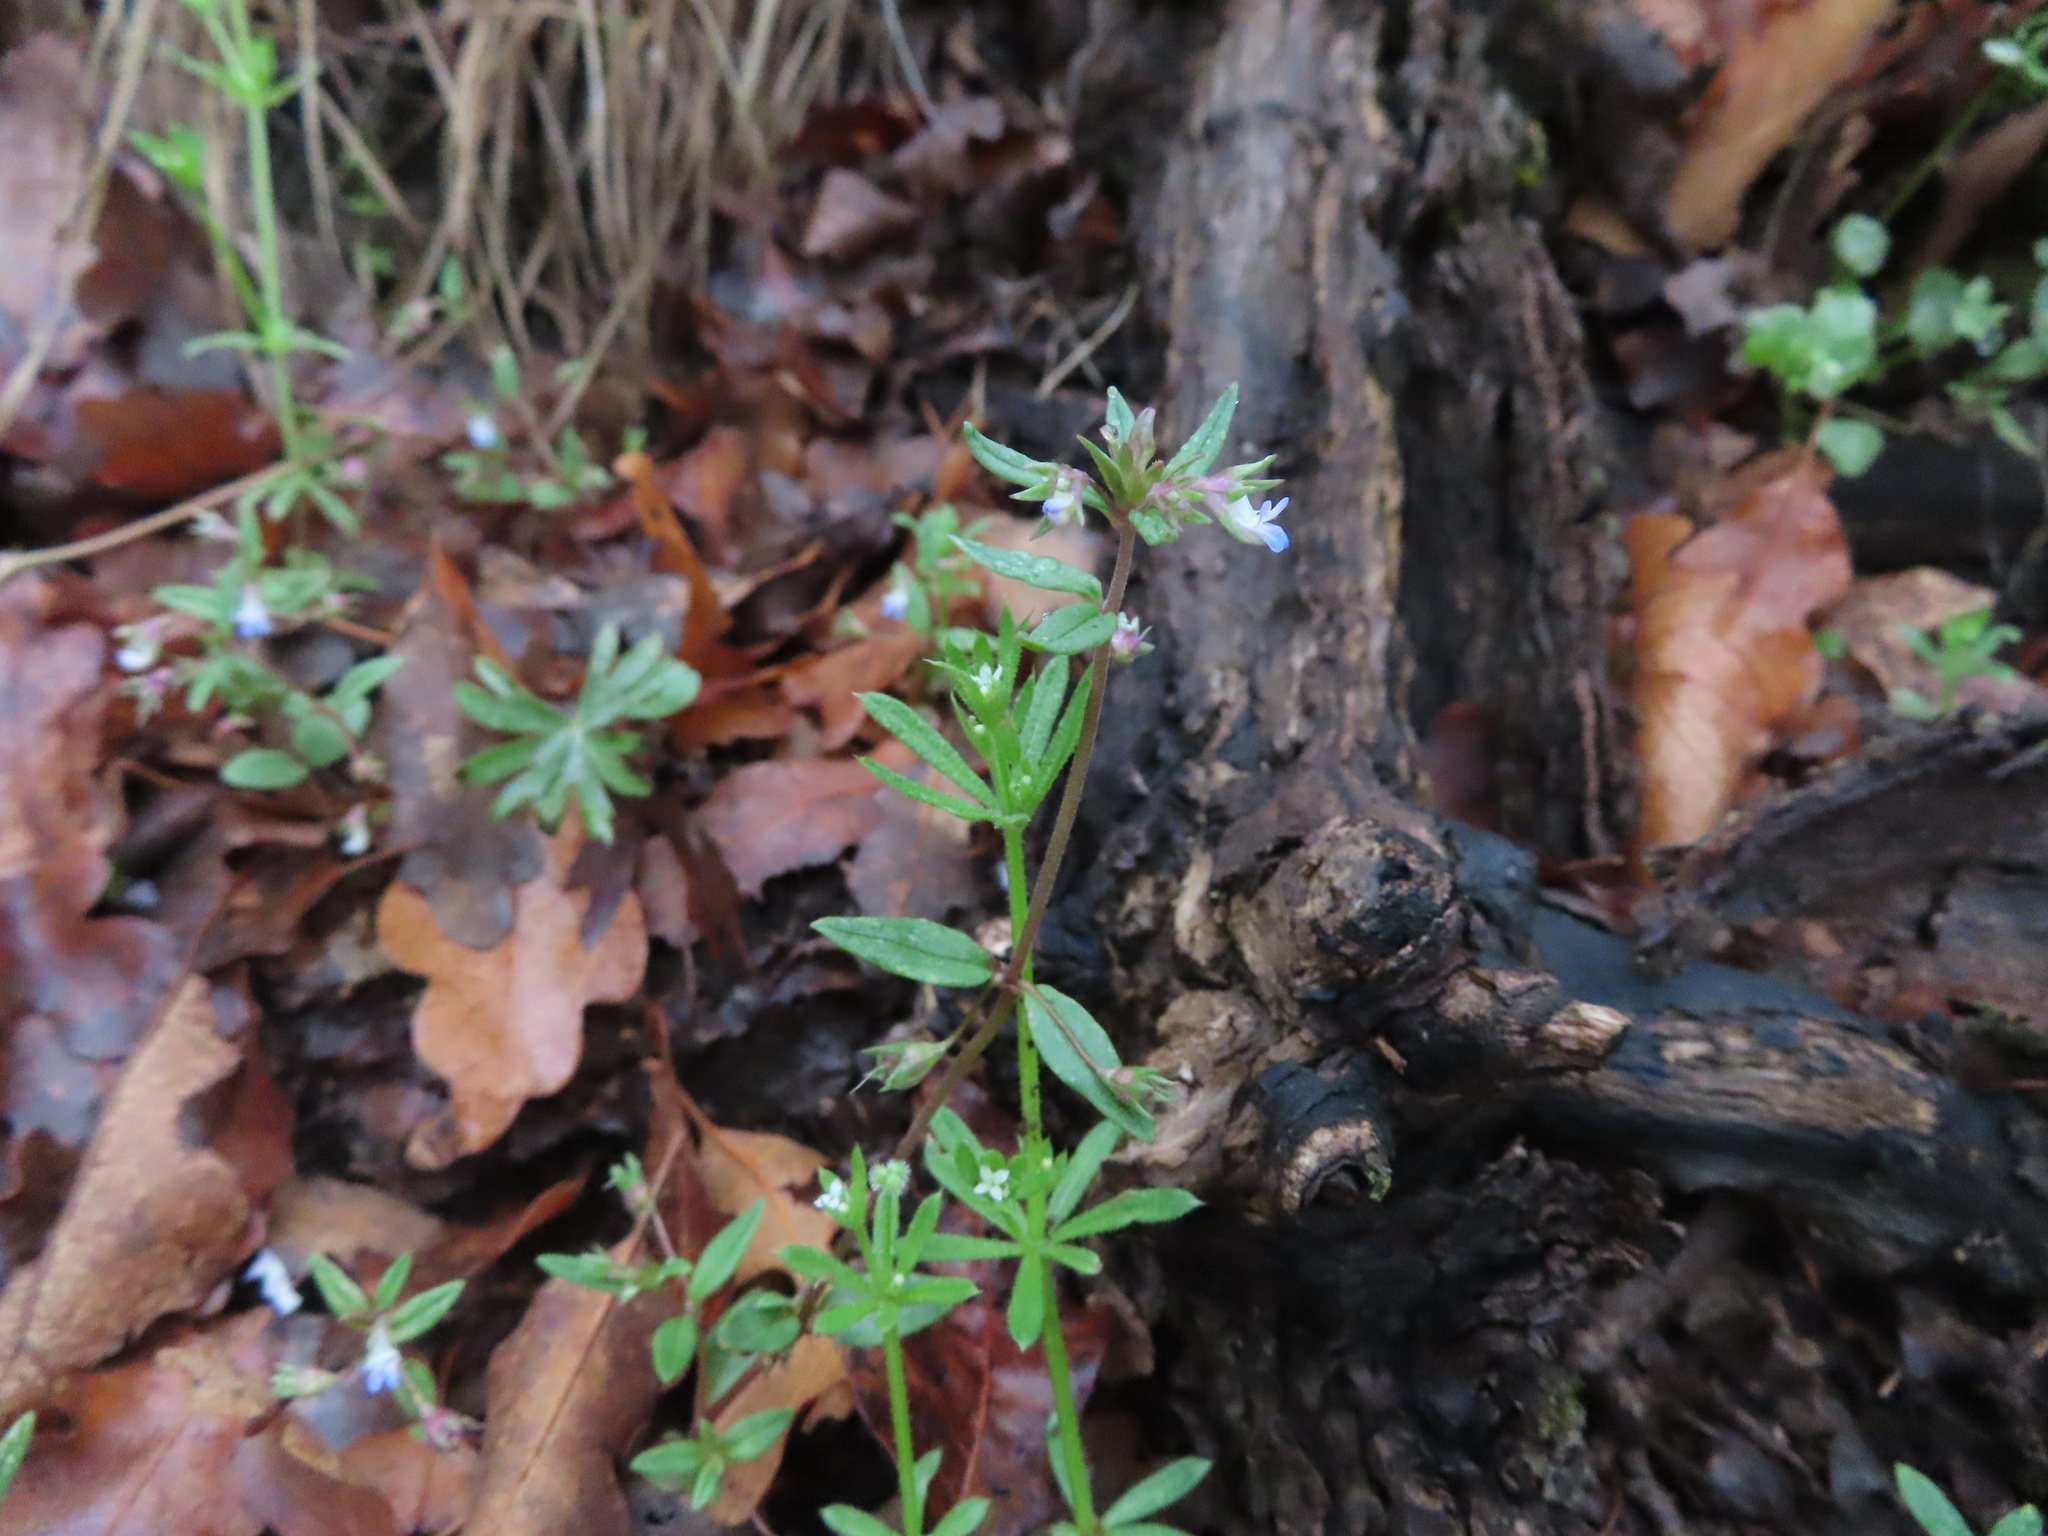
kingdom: Plantae
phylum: Tracheophyta
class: Magnoliopsida
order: Lamiales
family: Plantaginaceae
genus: Collinsia
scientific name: Collinsia parviflora
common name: Blue-lips
